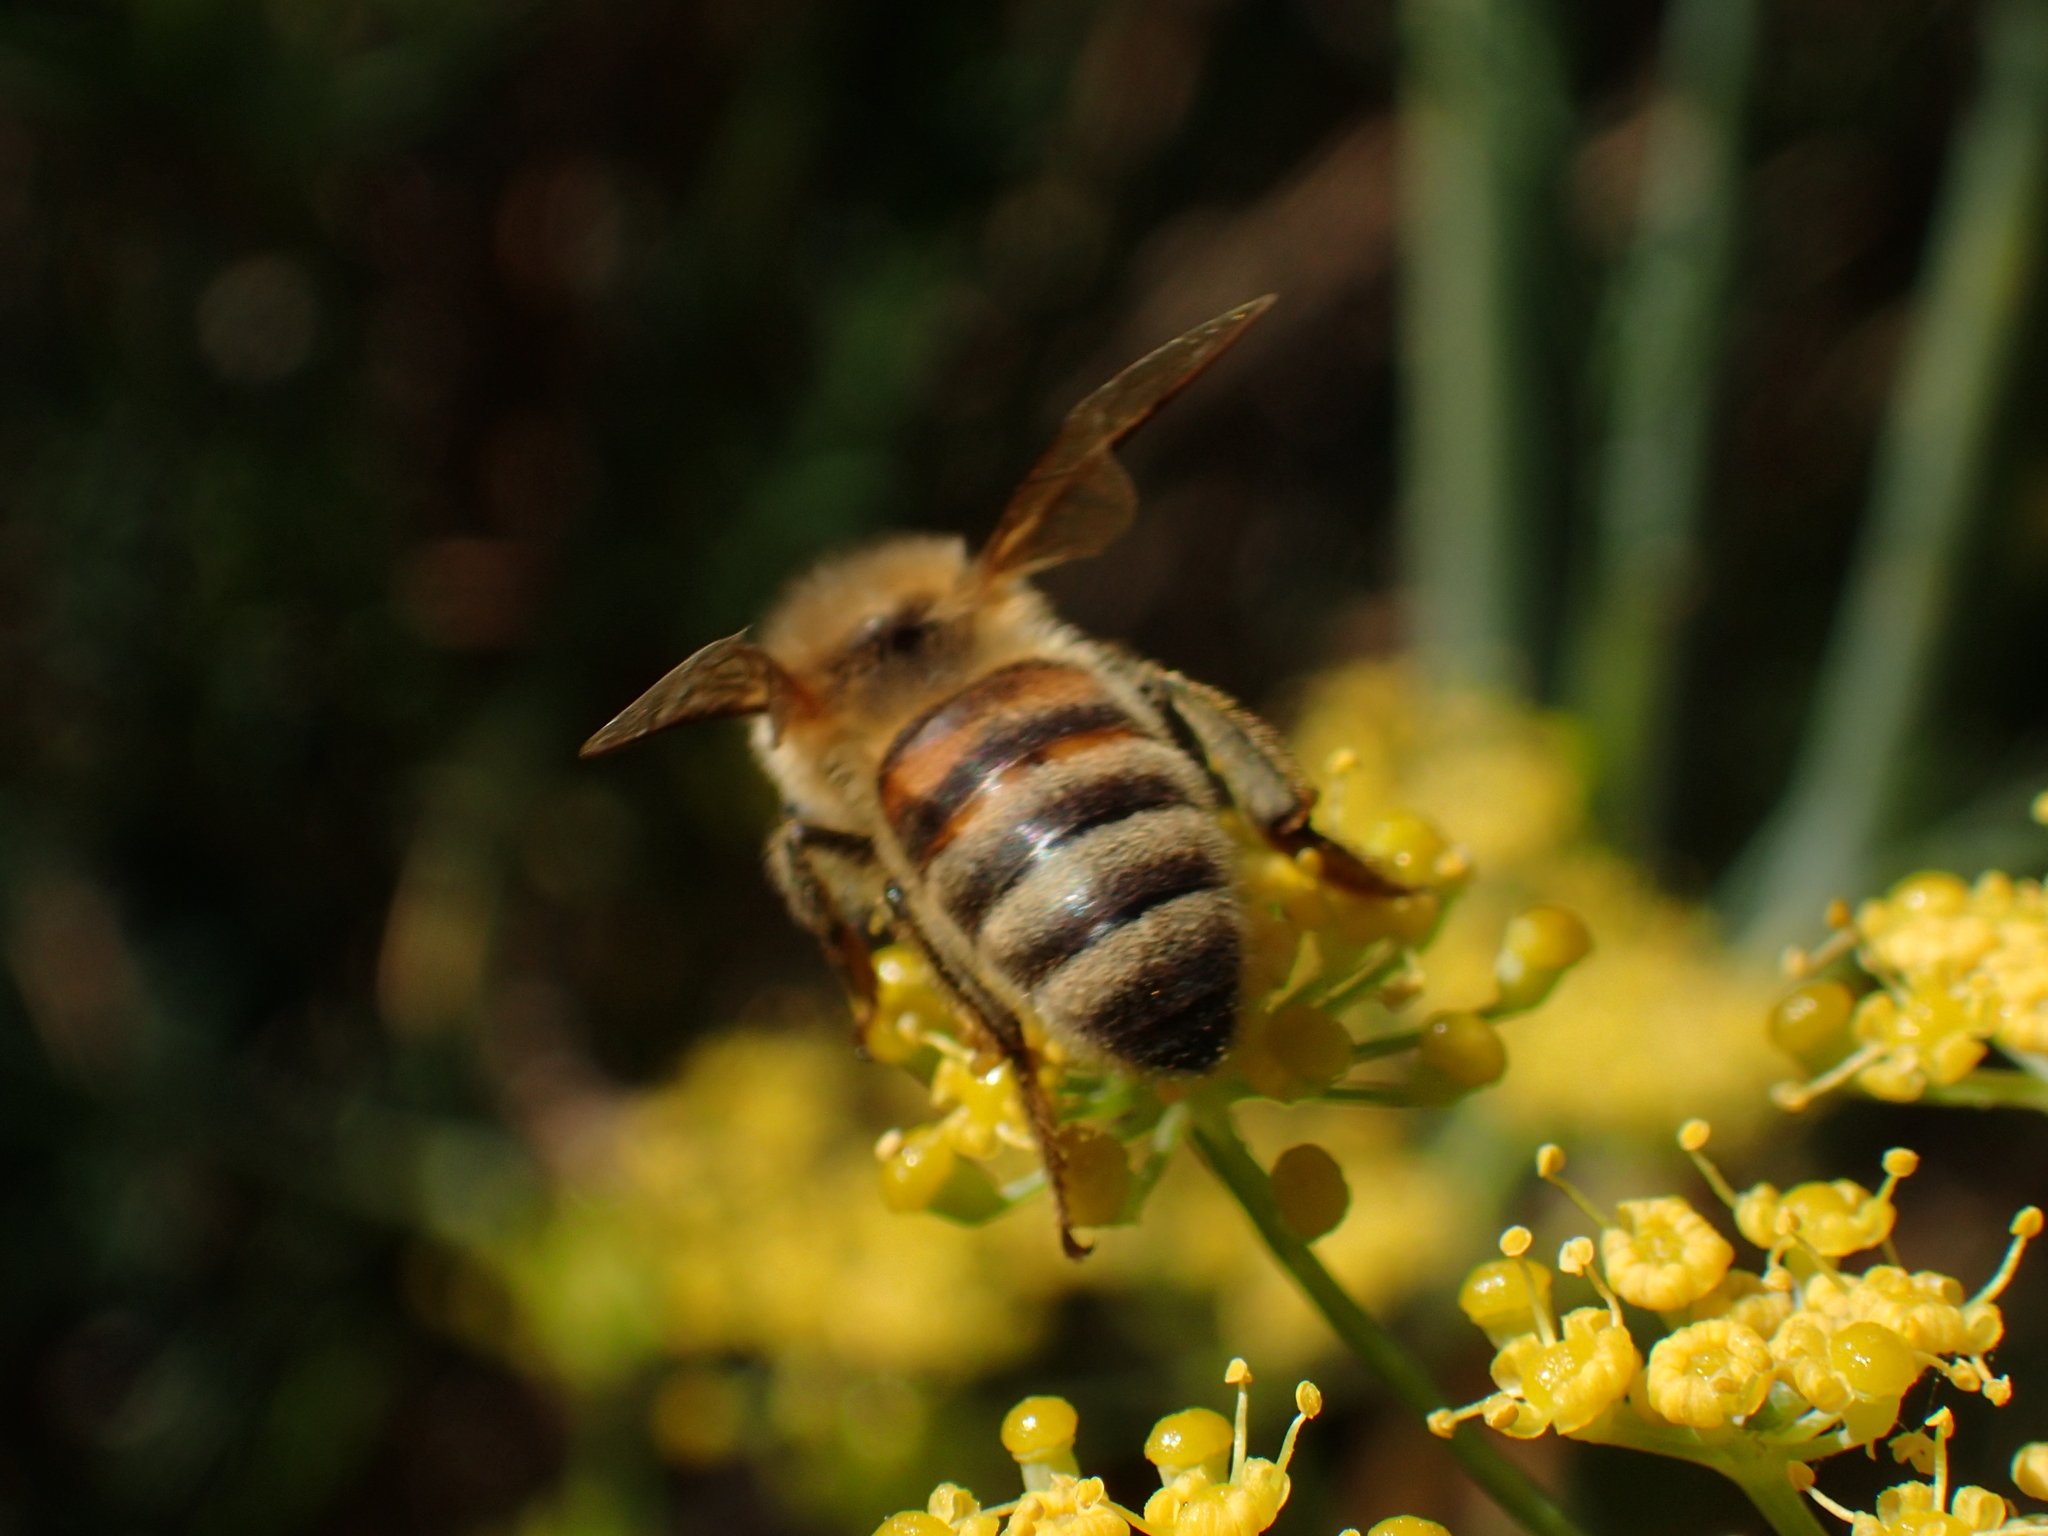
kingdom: Animalia
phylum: Arthropoda
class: Insecta
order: Hymenoptera
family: Apidae
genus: Apis
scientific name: Apis mellifera
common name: Honey bee
